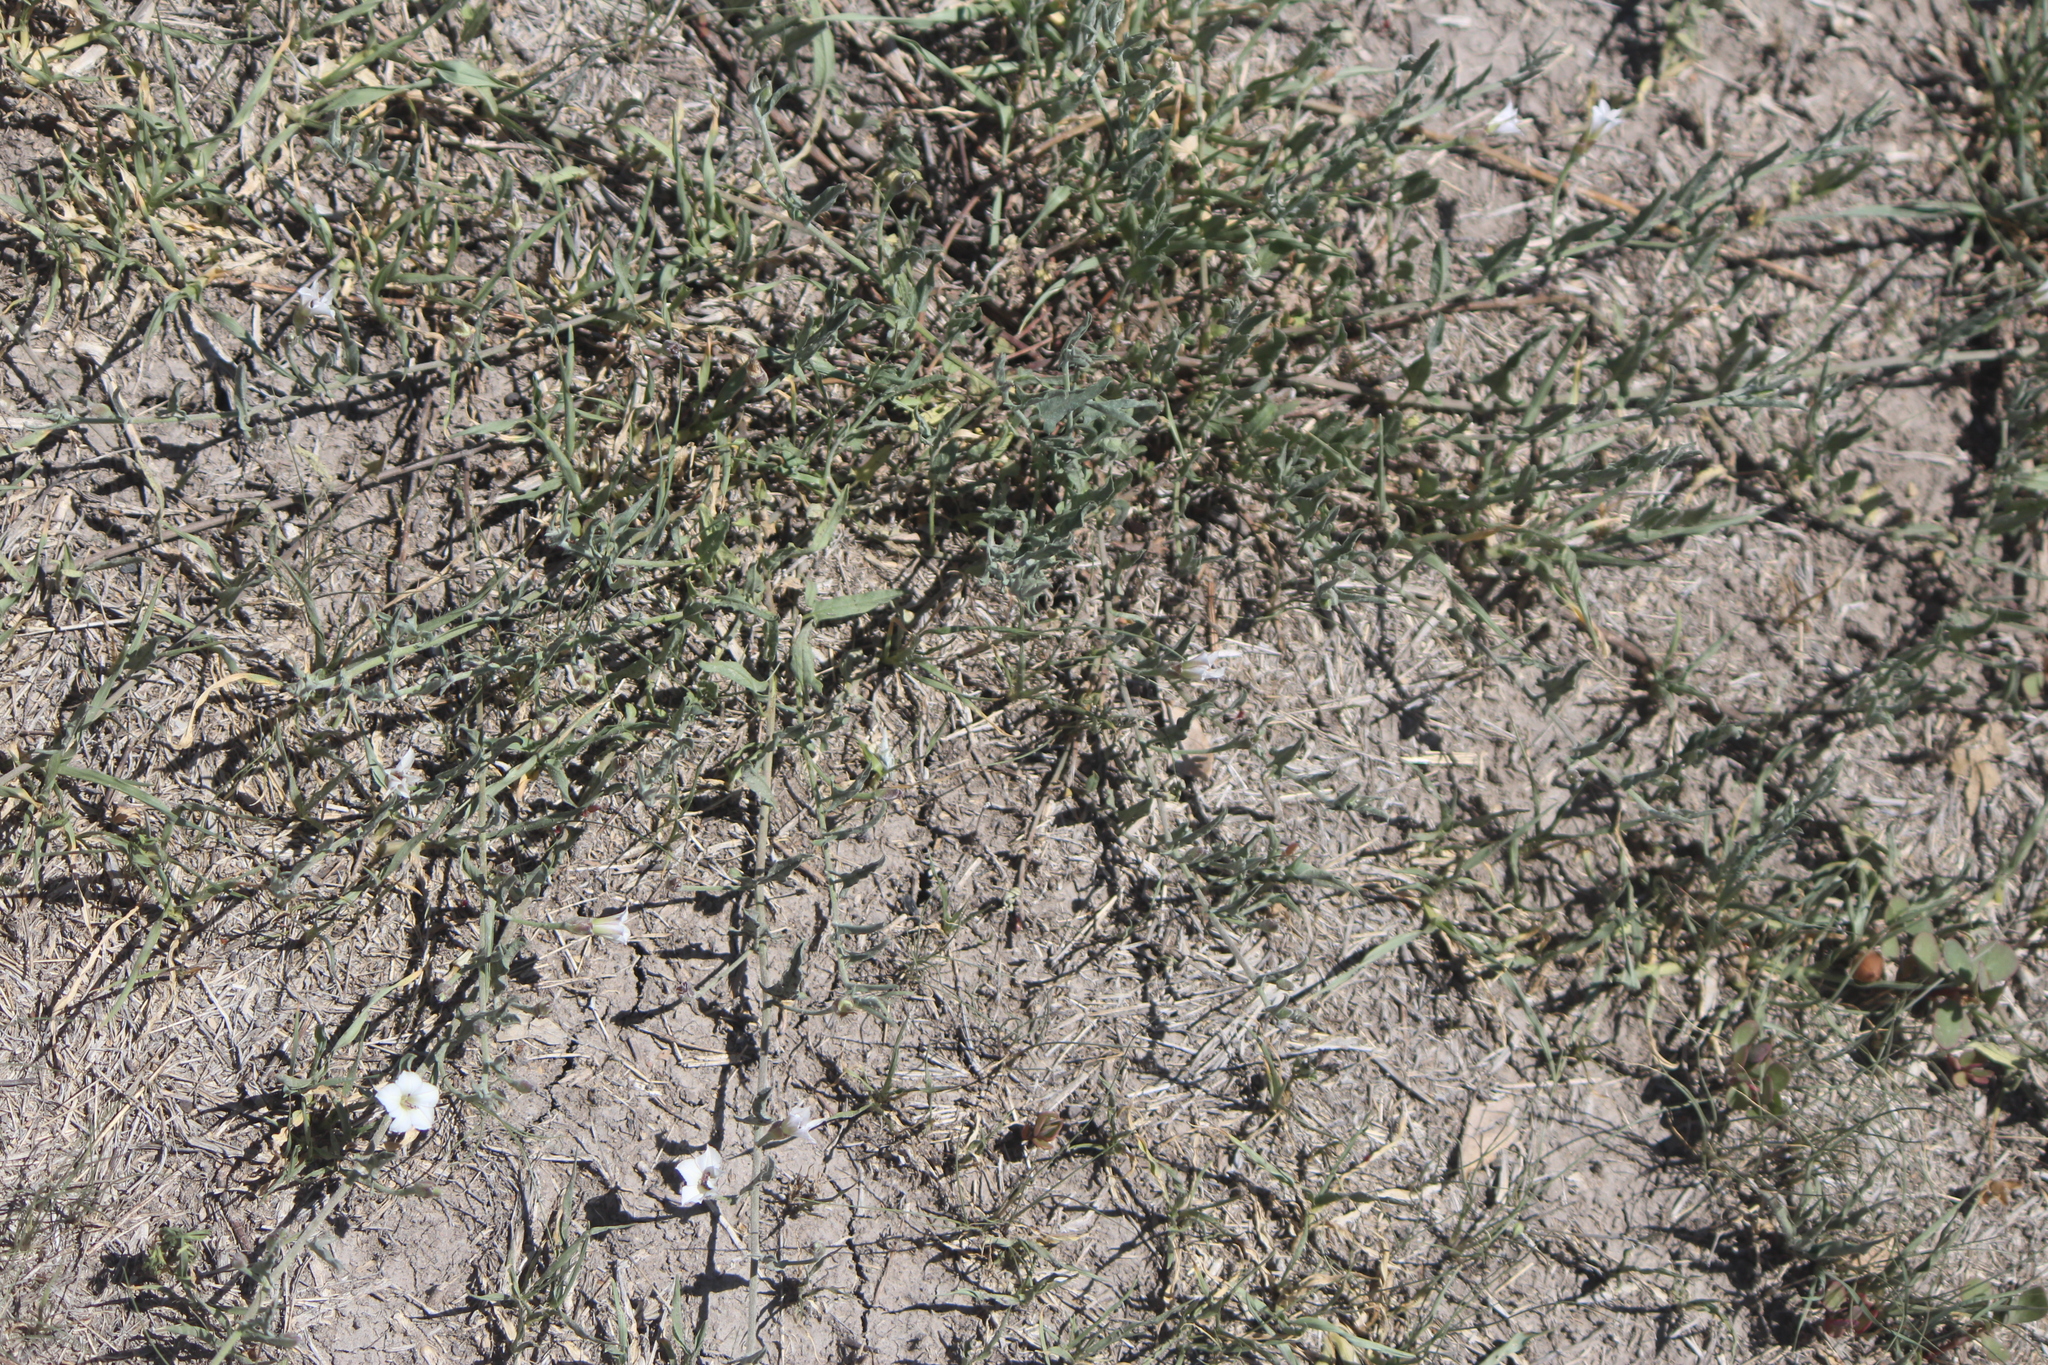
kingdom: Plantae
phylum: Tracheophyta
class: Magnoliopsida
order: Solanales
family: Convolvulaceae
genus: Convolvulus
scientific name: Convolvulus equitans
